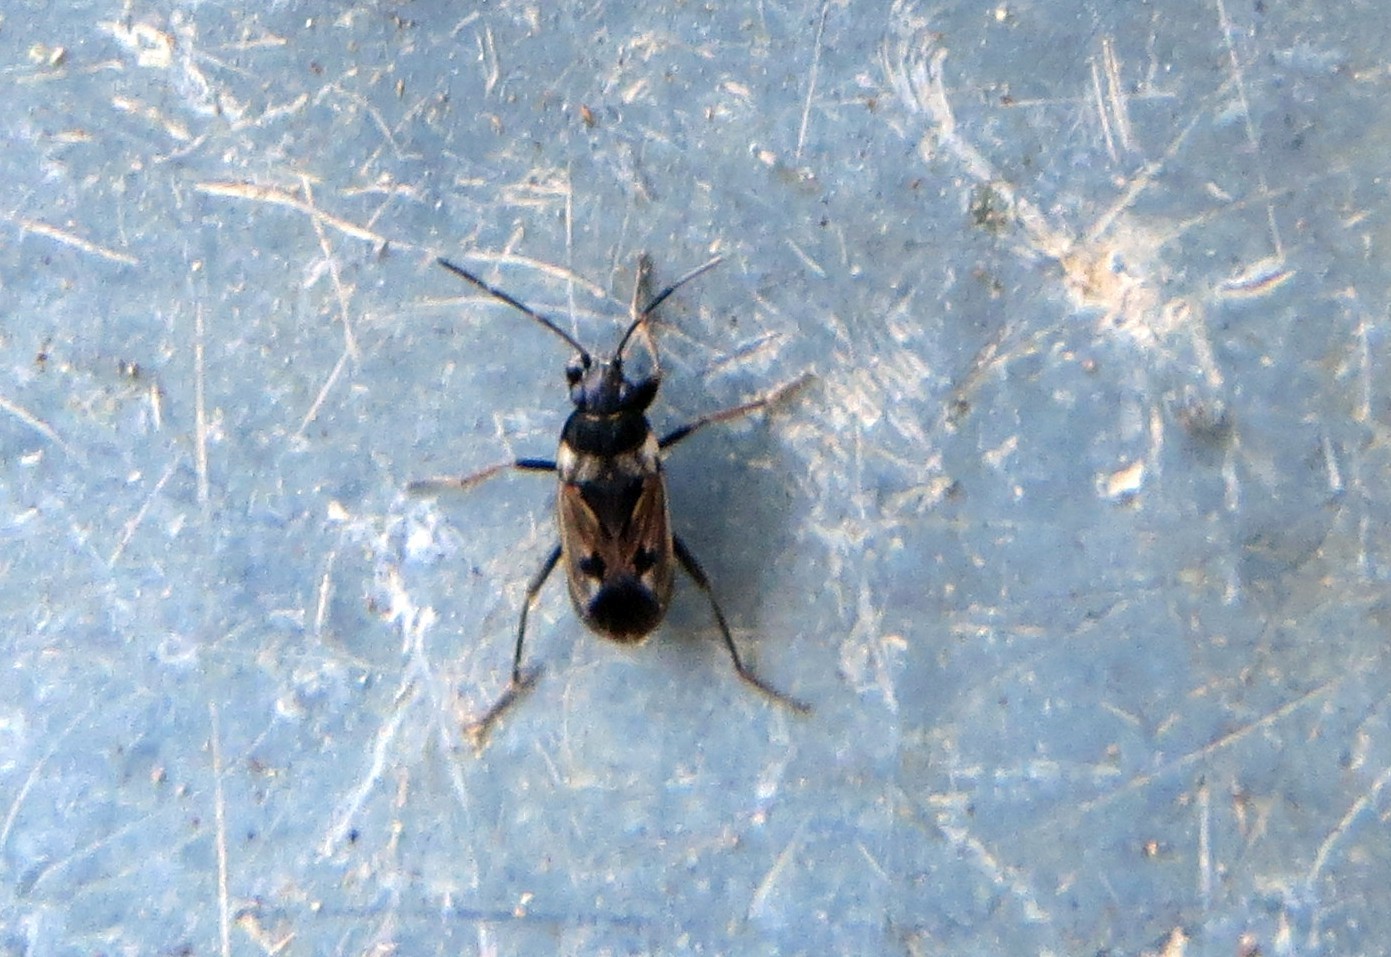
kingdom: Animalia
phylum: Arthropoda
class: Insecta
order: Hemiptera
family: Rhyparochromidae
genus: Rhyparochromus
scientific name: Rhyparochromus vulgaris
